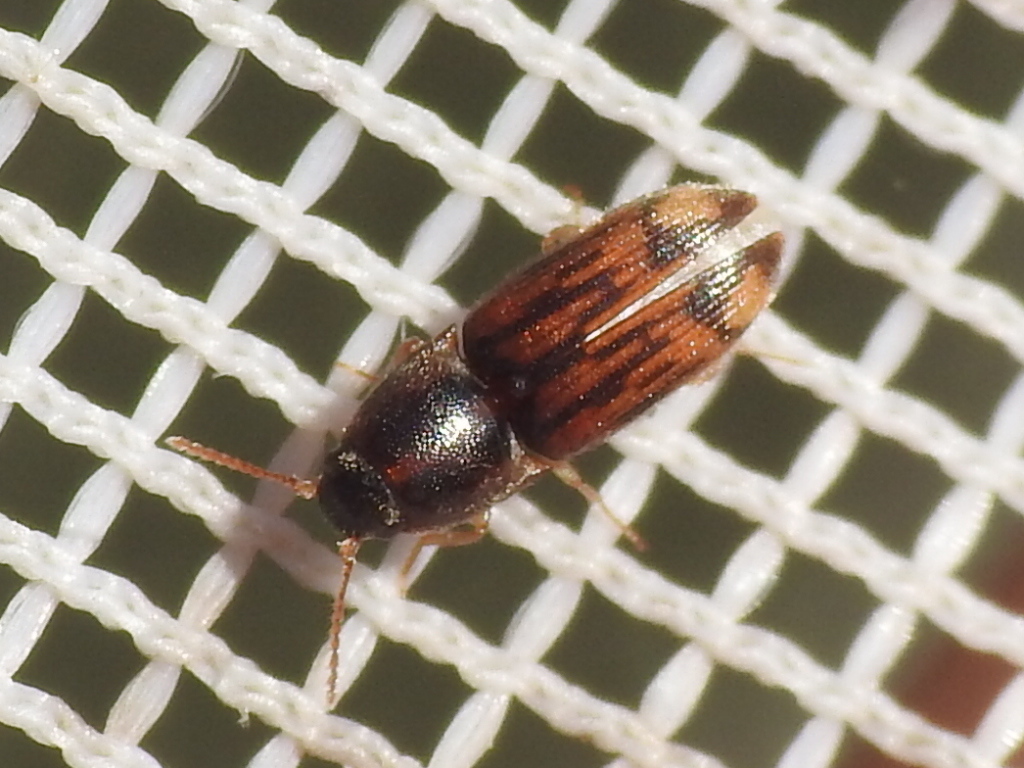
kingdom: Animalia
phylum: Arthropoda
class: Insecta
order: Coleoptera
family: Elateridae
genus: Monocrepidius
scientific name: Monocrepidius bellus
